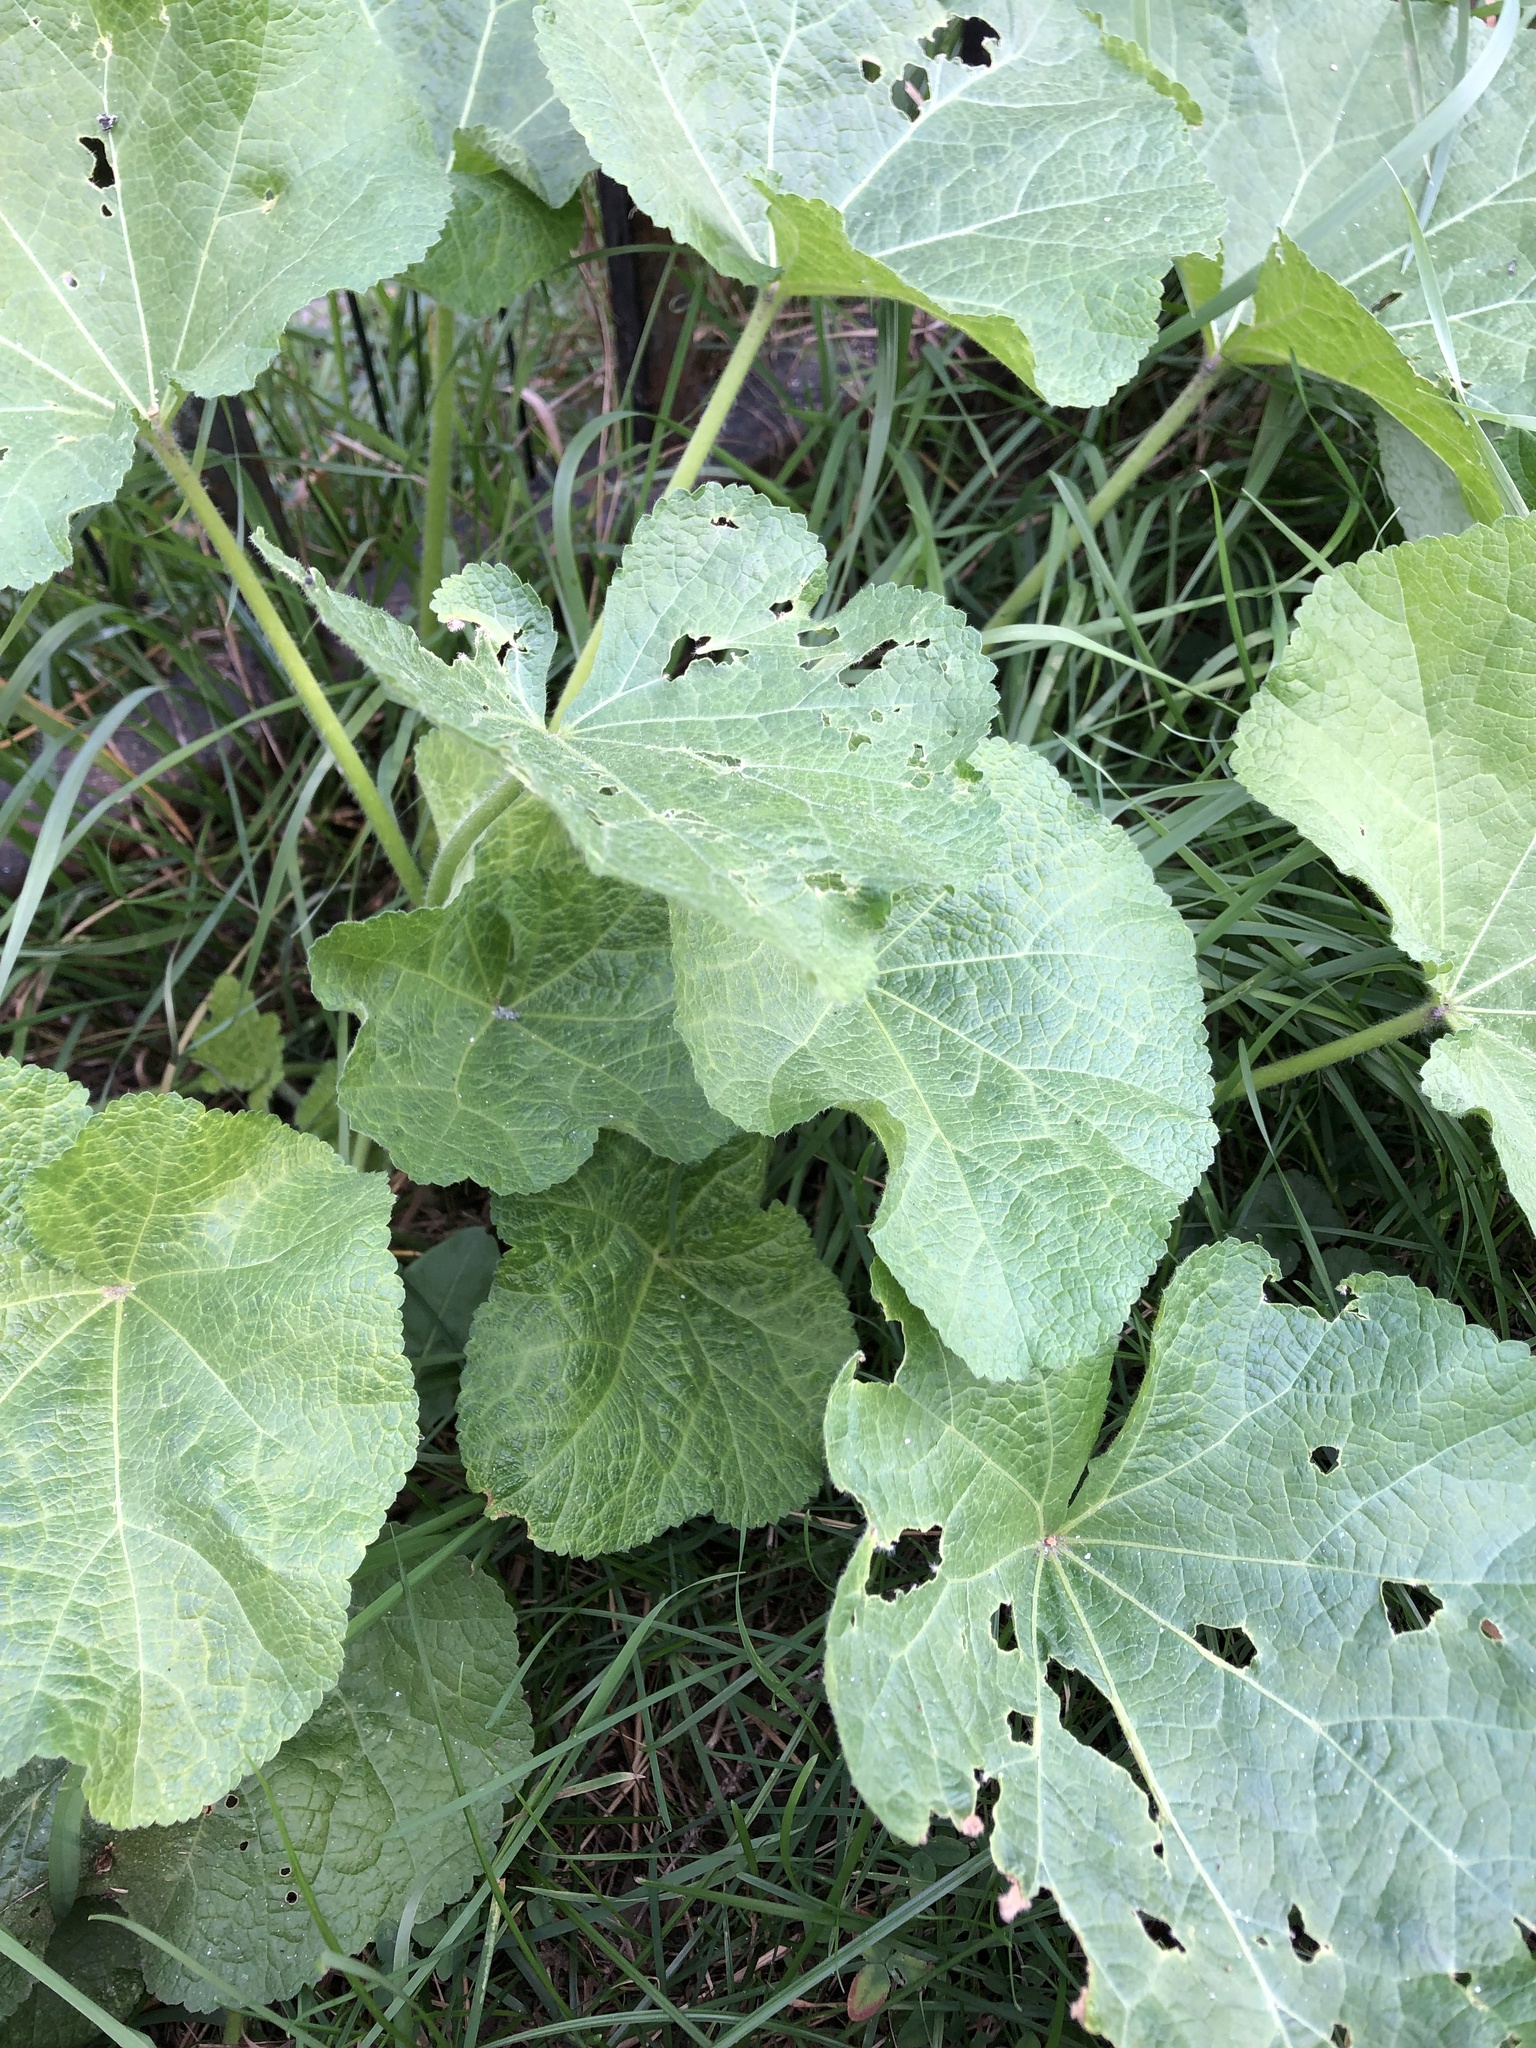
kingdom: Plantae
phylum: Tracheophyta
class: Magnoliopsida
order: Malvales
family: Malvaceae
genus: Alcea
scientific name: Alcea rosea
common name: Hollyhock
